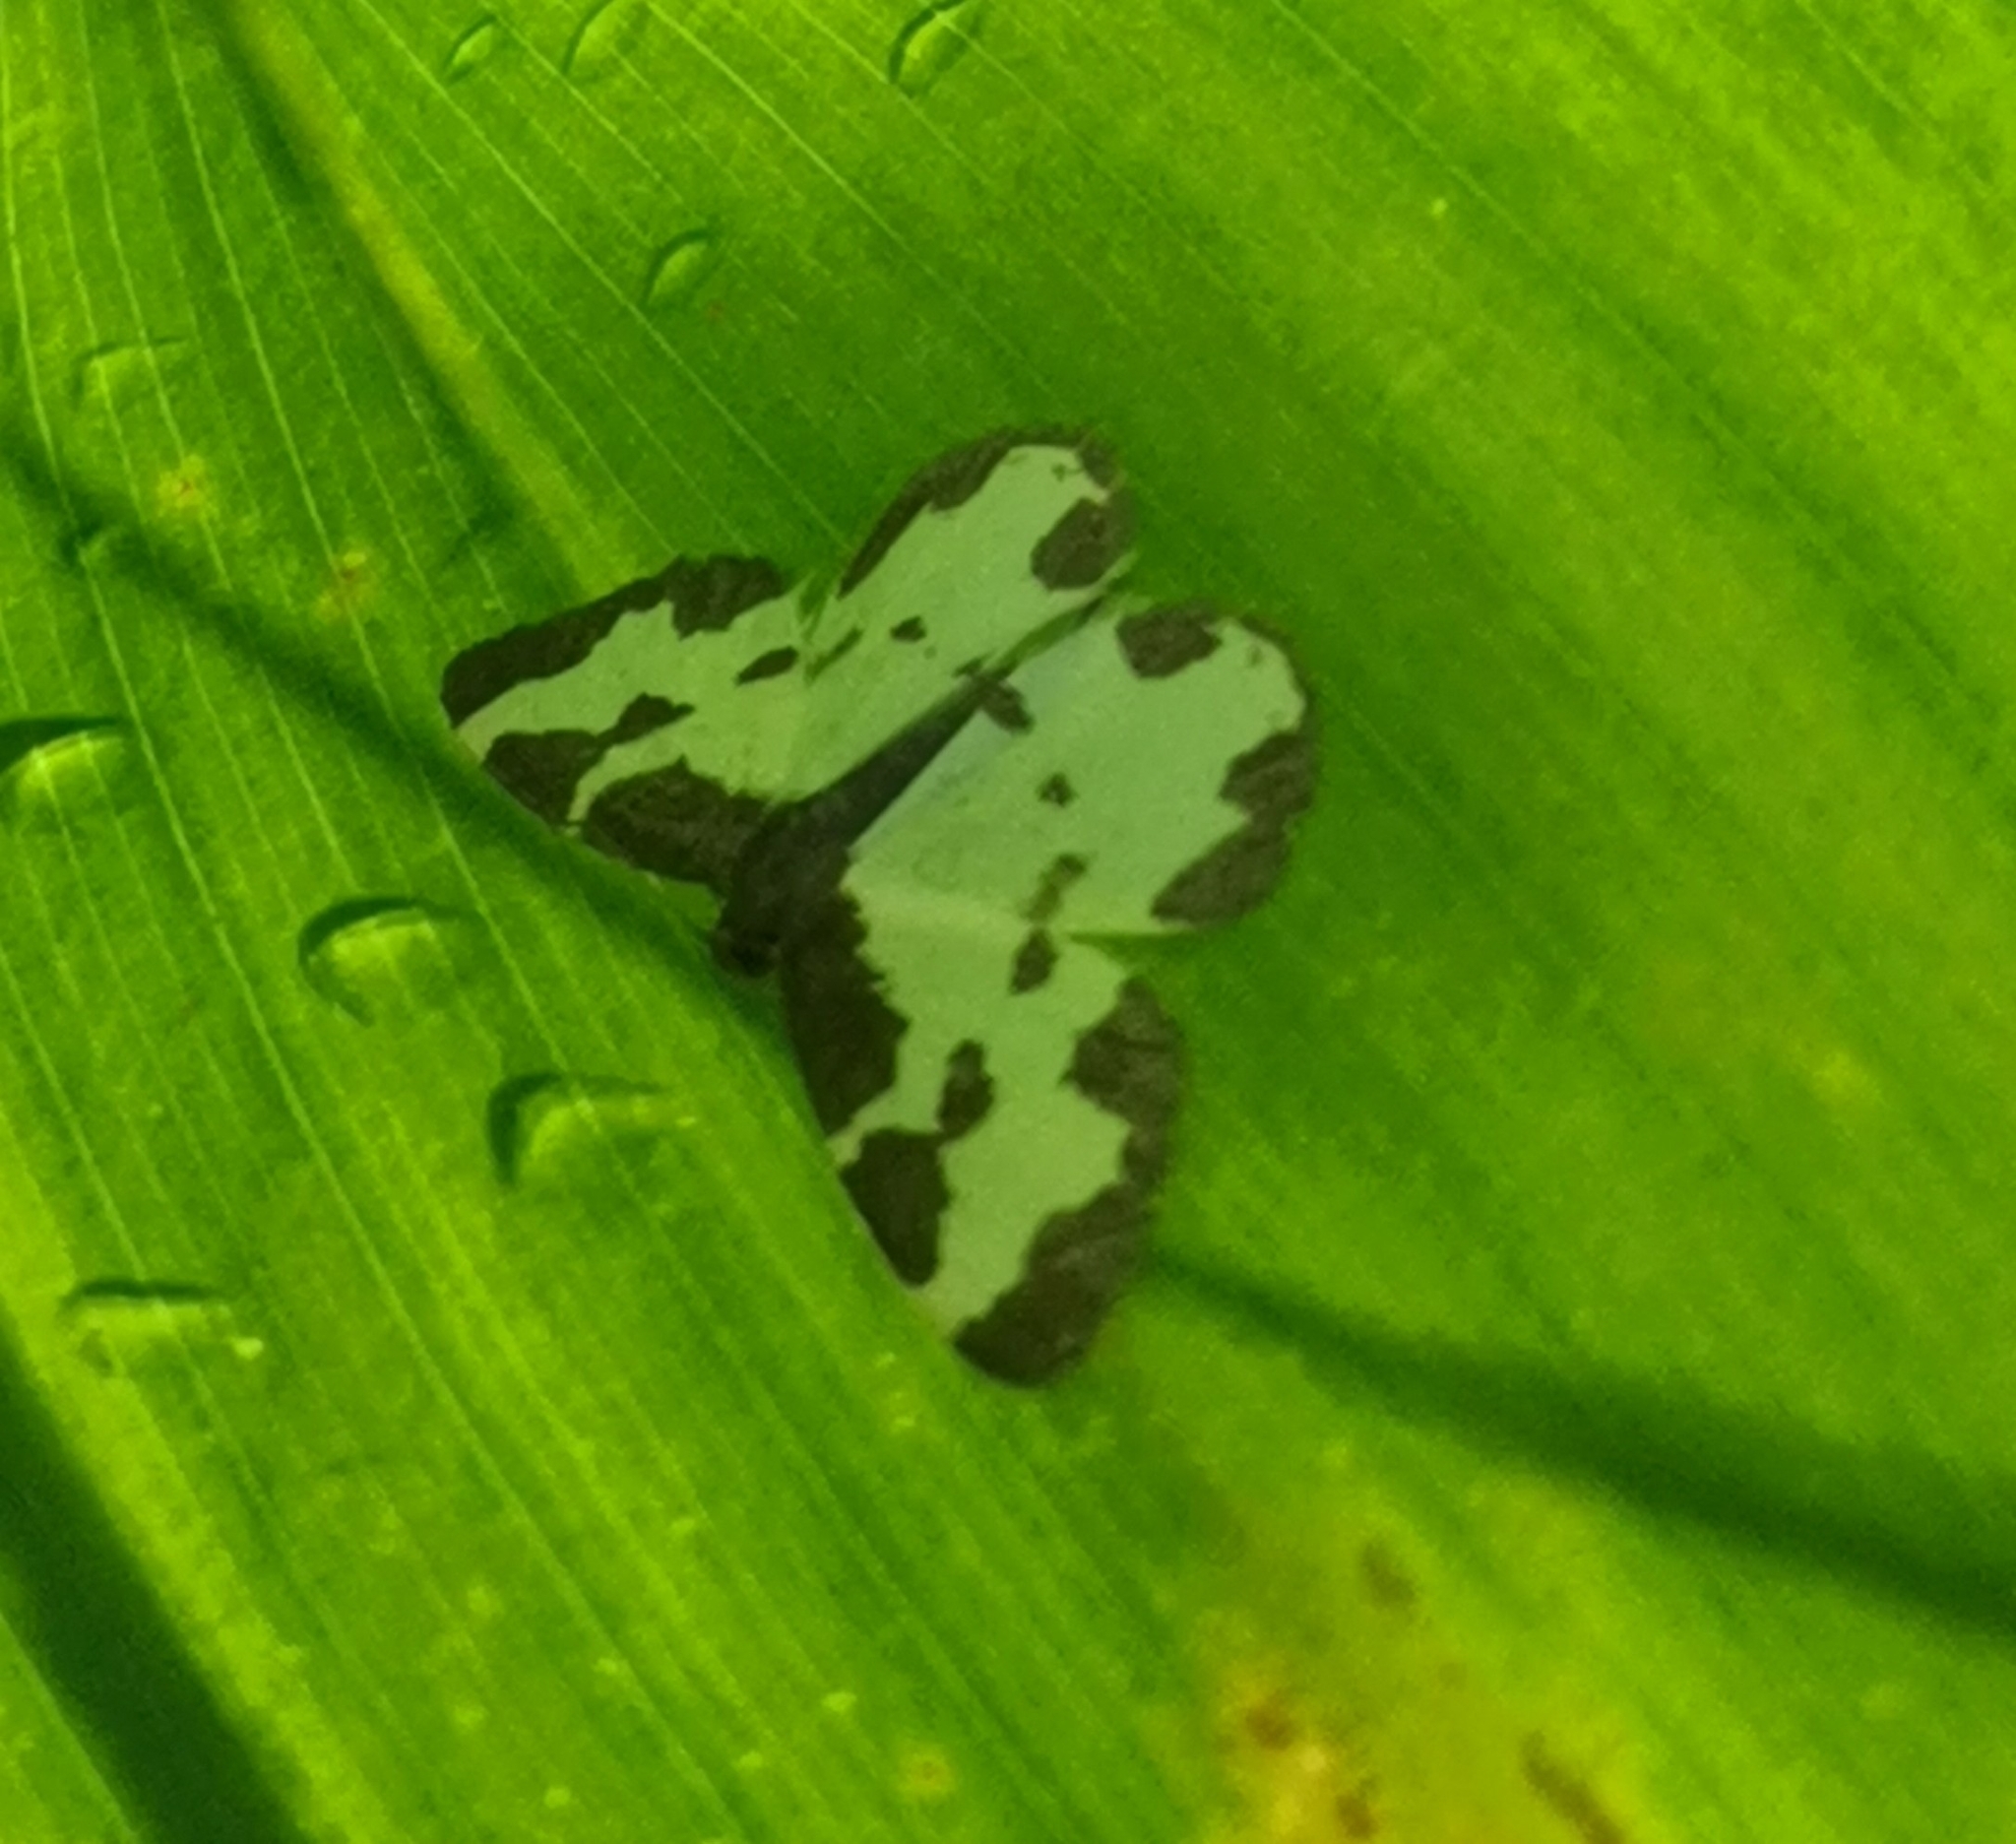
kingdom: Animalia
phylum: Arthropoda
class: Insecta
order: Lepidoptera
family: Geometridae
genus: Lomaspilis
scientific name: Lomaspilis marginata
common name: Clouded border
